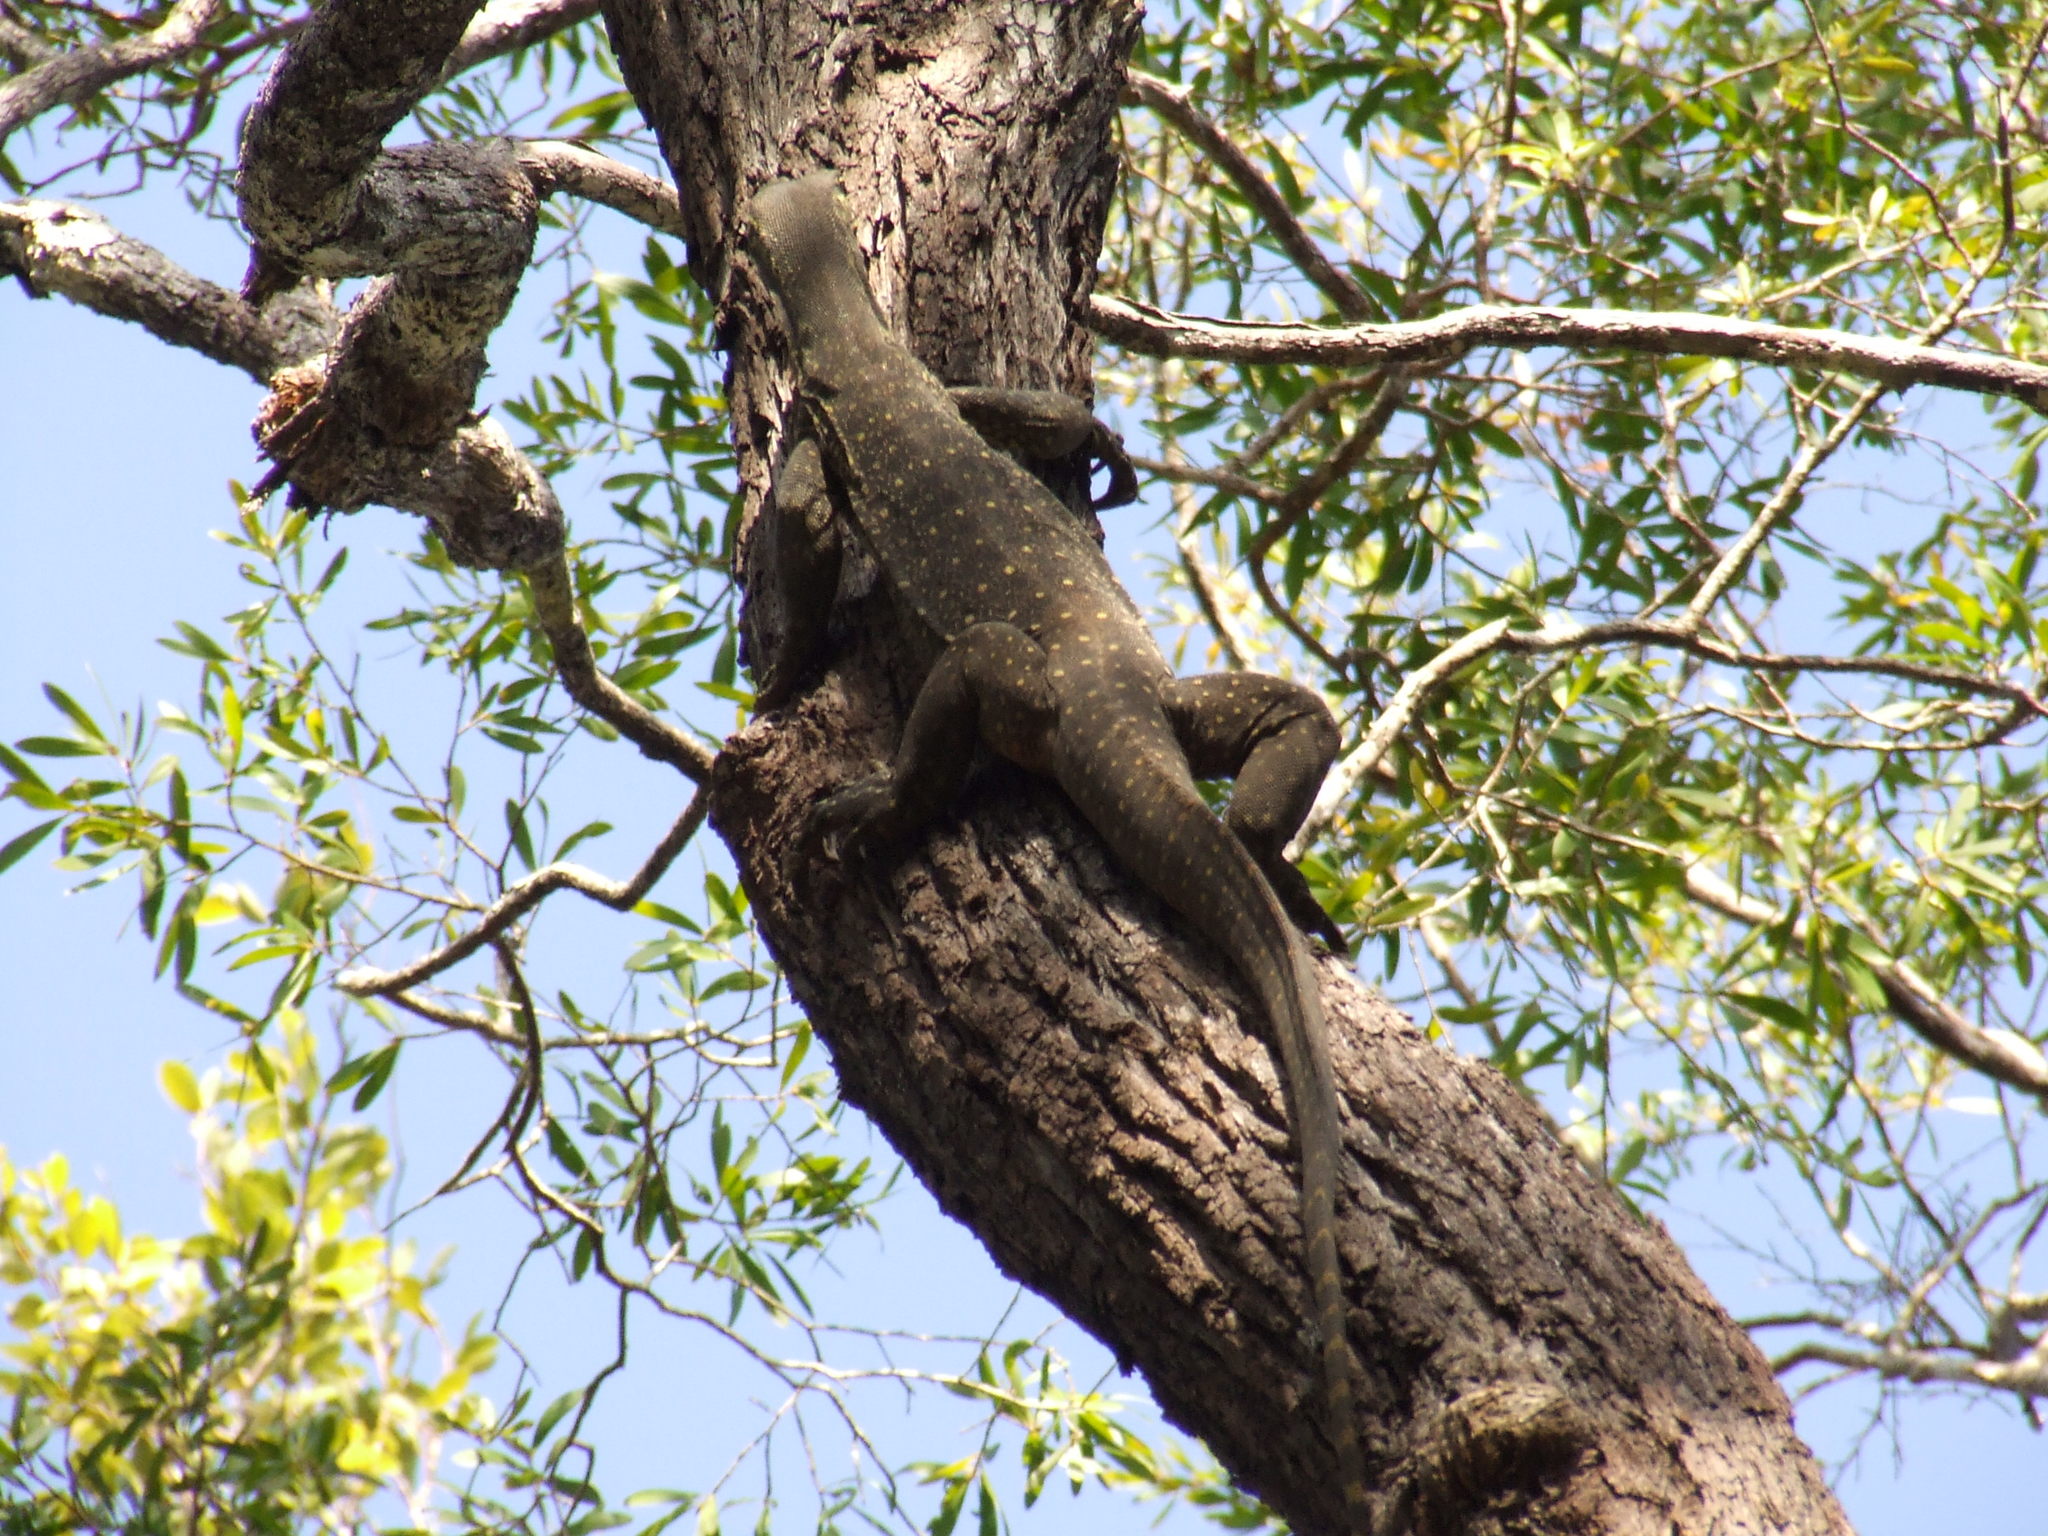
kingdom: Animalia
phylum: Chordata
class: Squamata
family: Varanidae
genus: Varanus
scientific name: Varanus panoptes
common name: Yellow-spotted monitor
